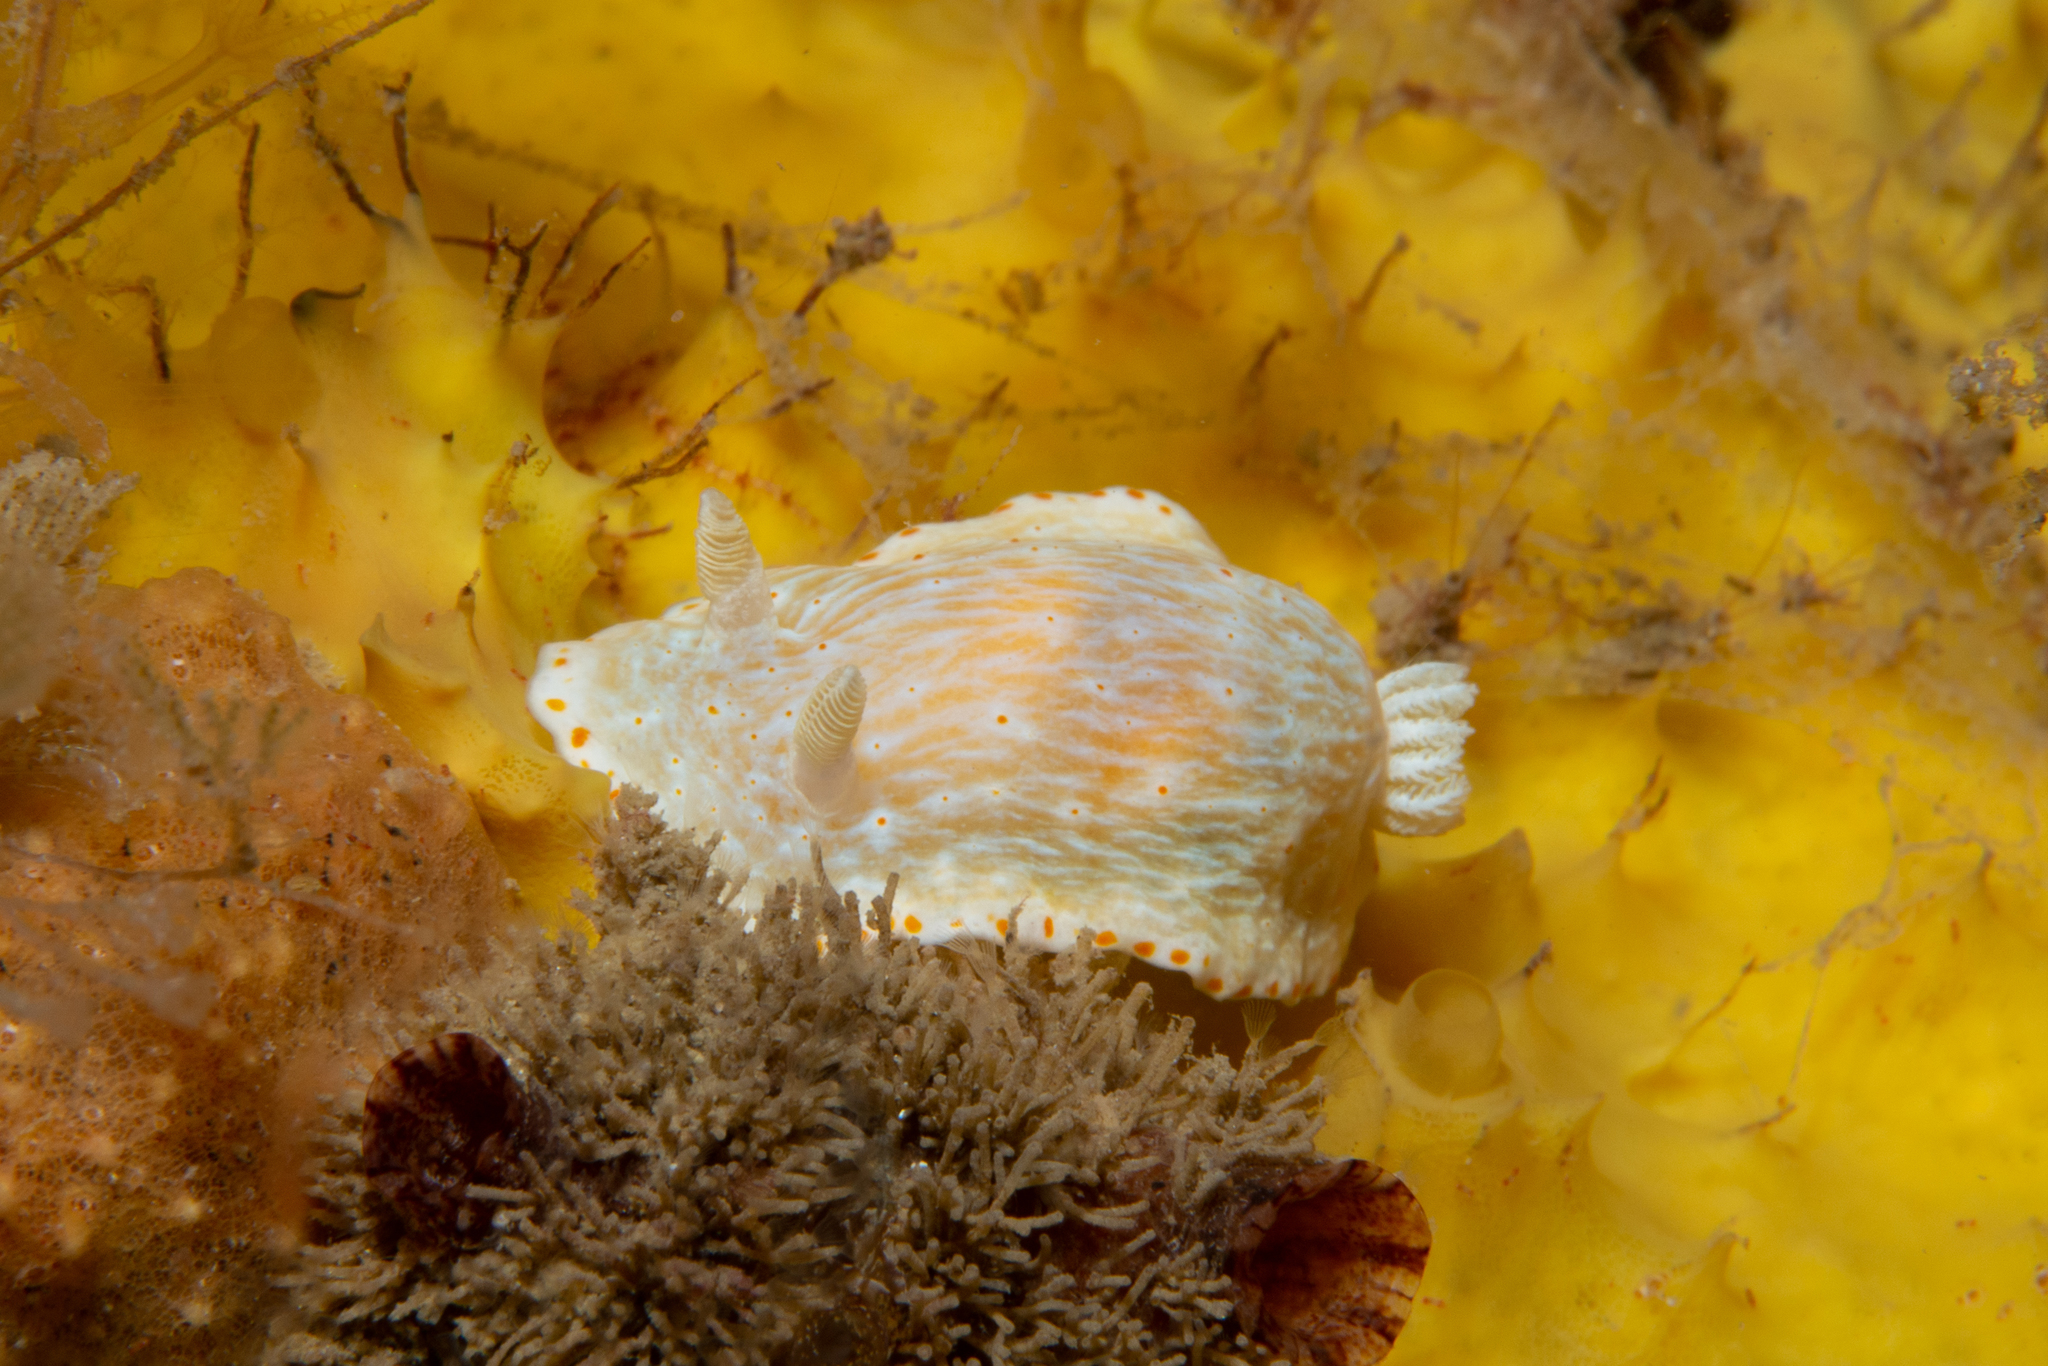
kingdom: Animalia
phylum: Mollusca
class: Gastropoda
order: Nudibranchia
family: Chromodorididae
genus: Goniobranchus
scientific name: Goniobranchus epicurius
